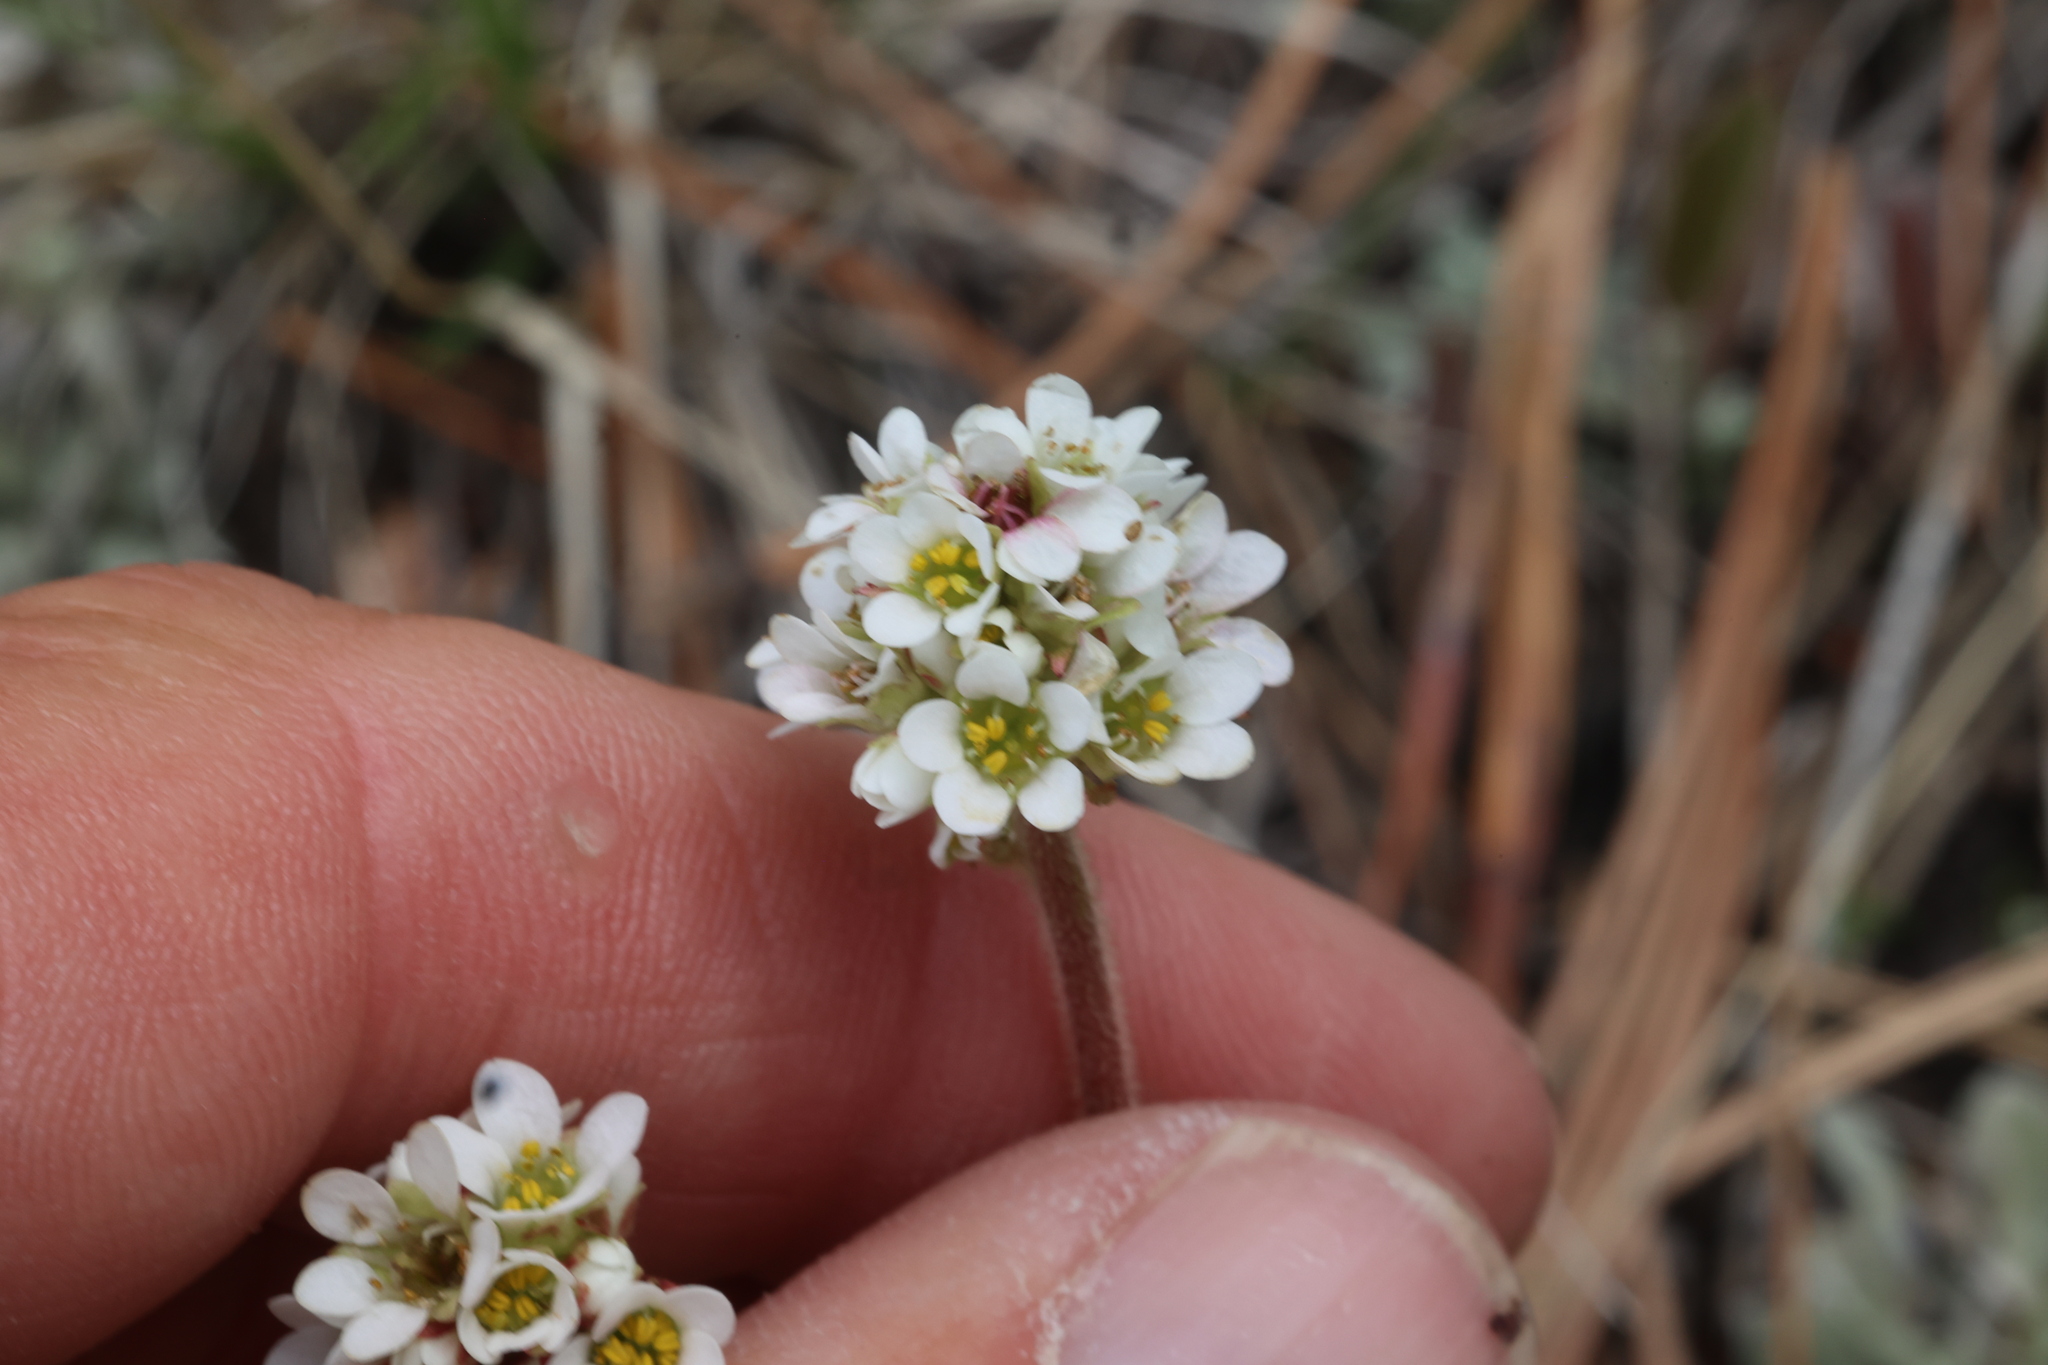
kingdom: Plantae
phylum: Tracheophyta
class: Magnoliopsida
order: Saxifragales
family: Saxifragaceae
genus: Micranthes
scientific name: Micranthes rhomboidea
